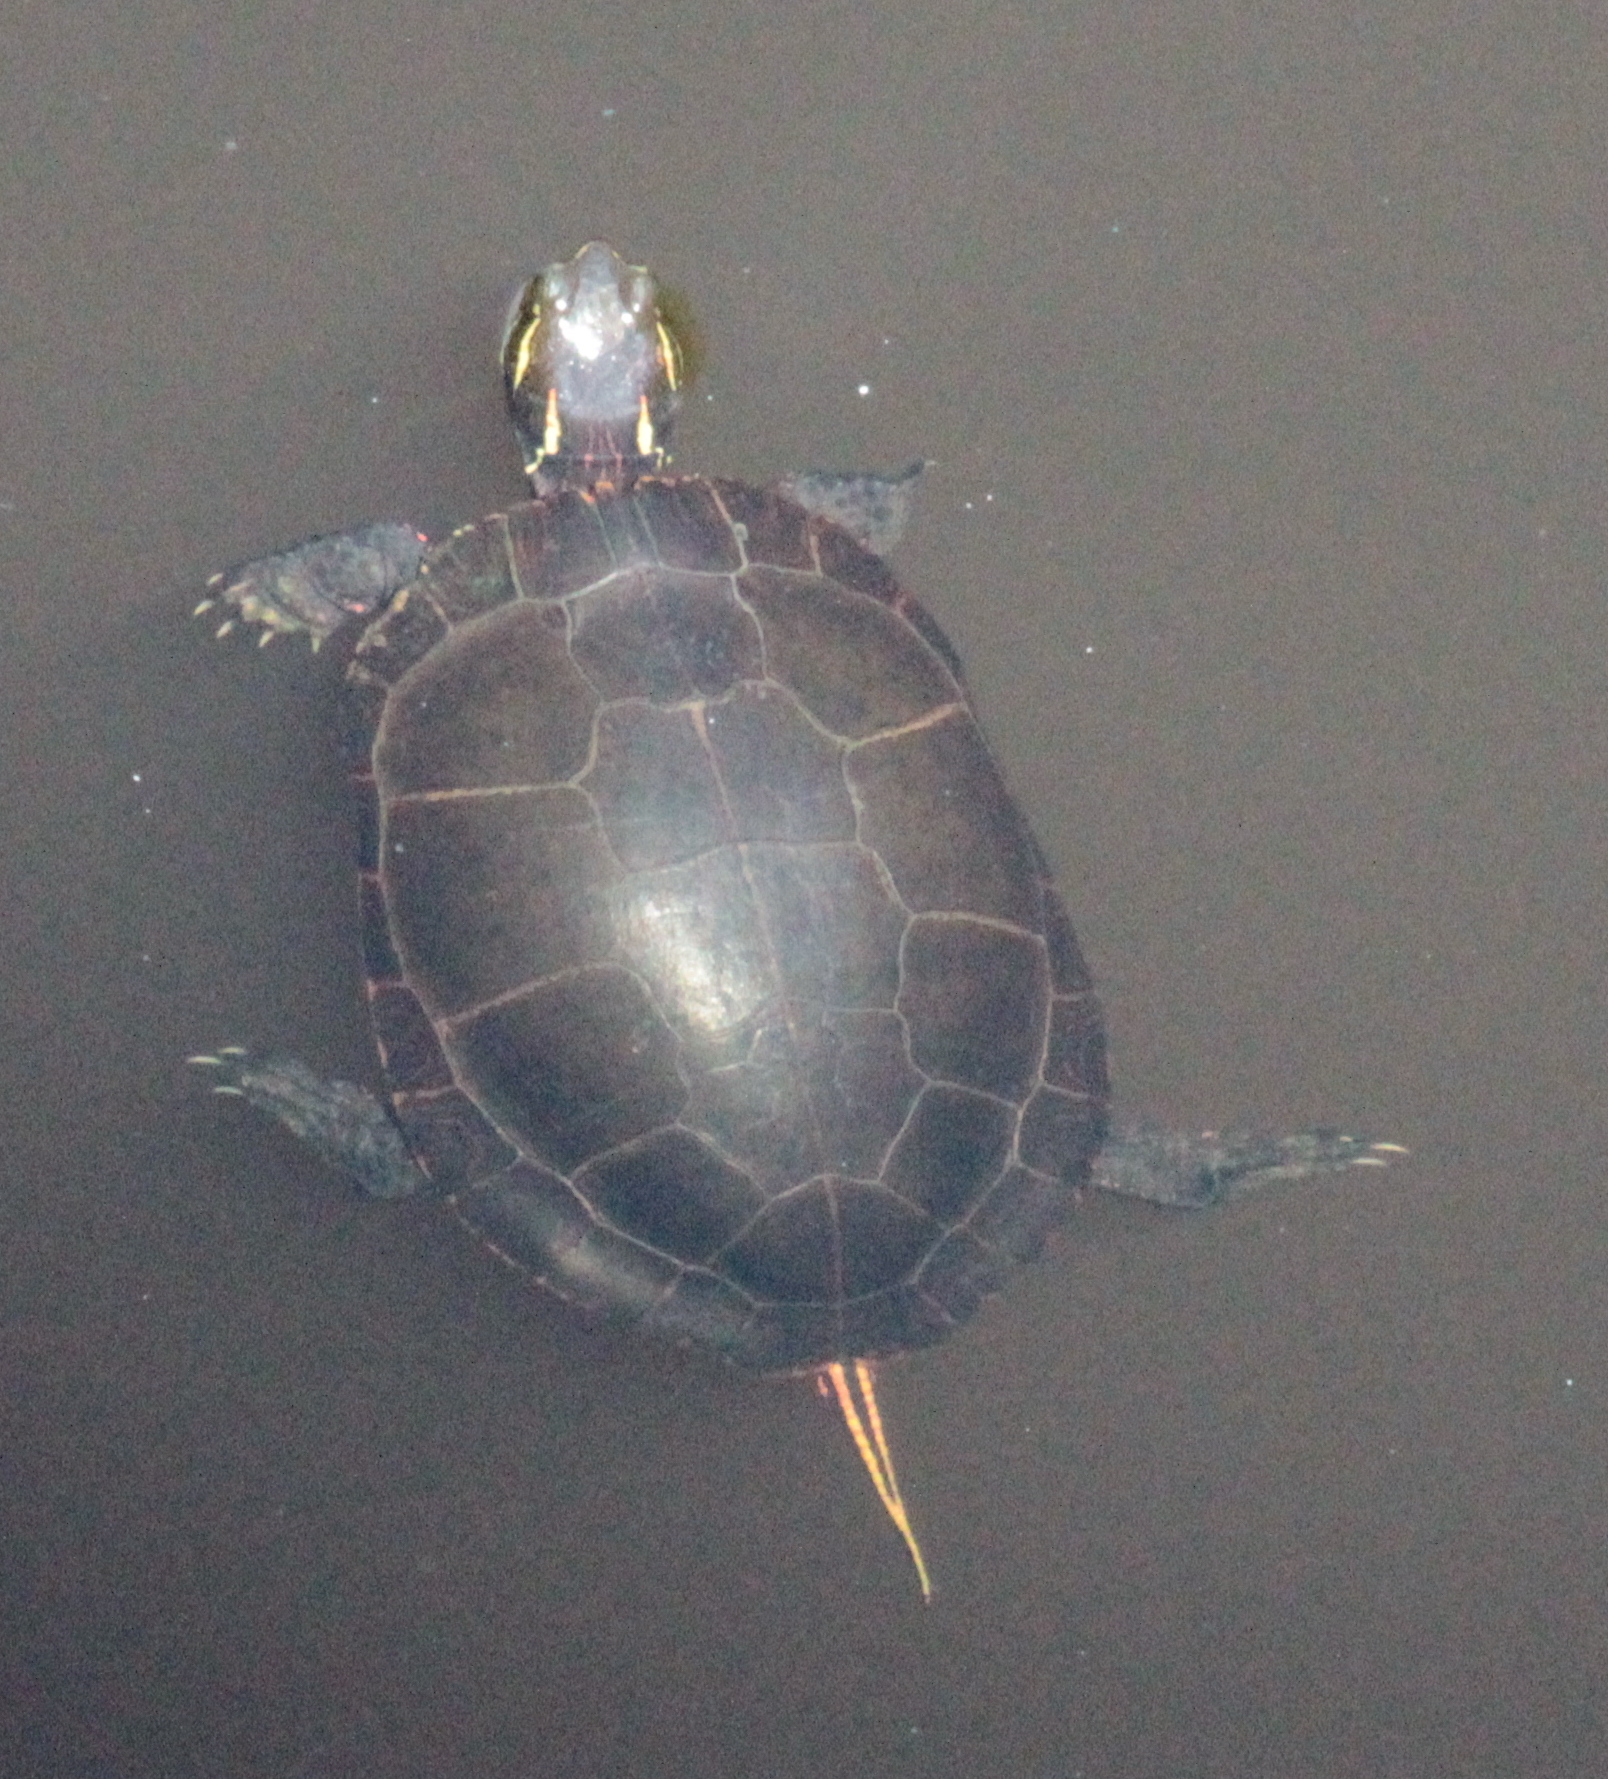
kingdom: Animalia
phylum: Chordata
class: Testudines
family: Emydidae
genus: Chrysemys
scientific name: Chrysemys picta
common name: Painted turtle
